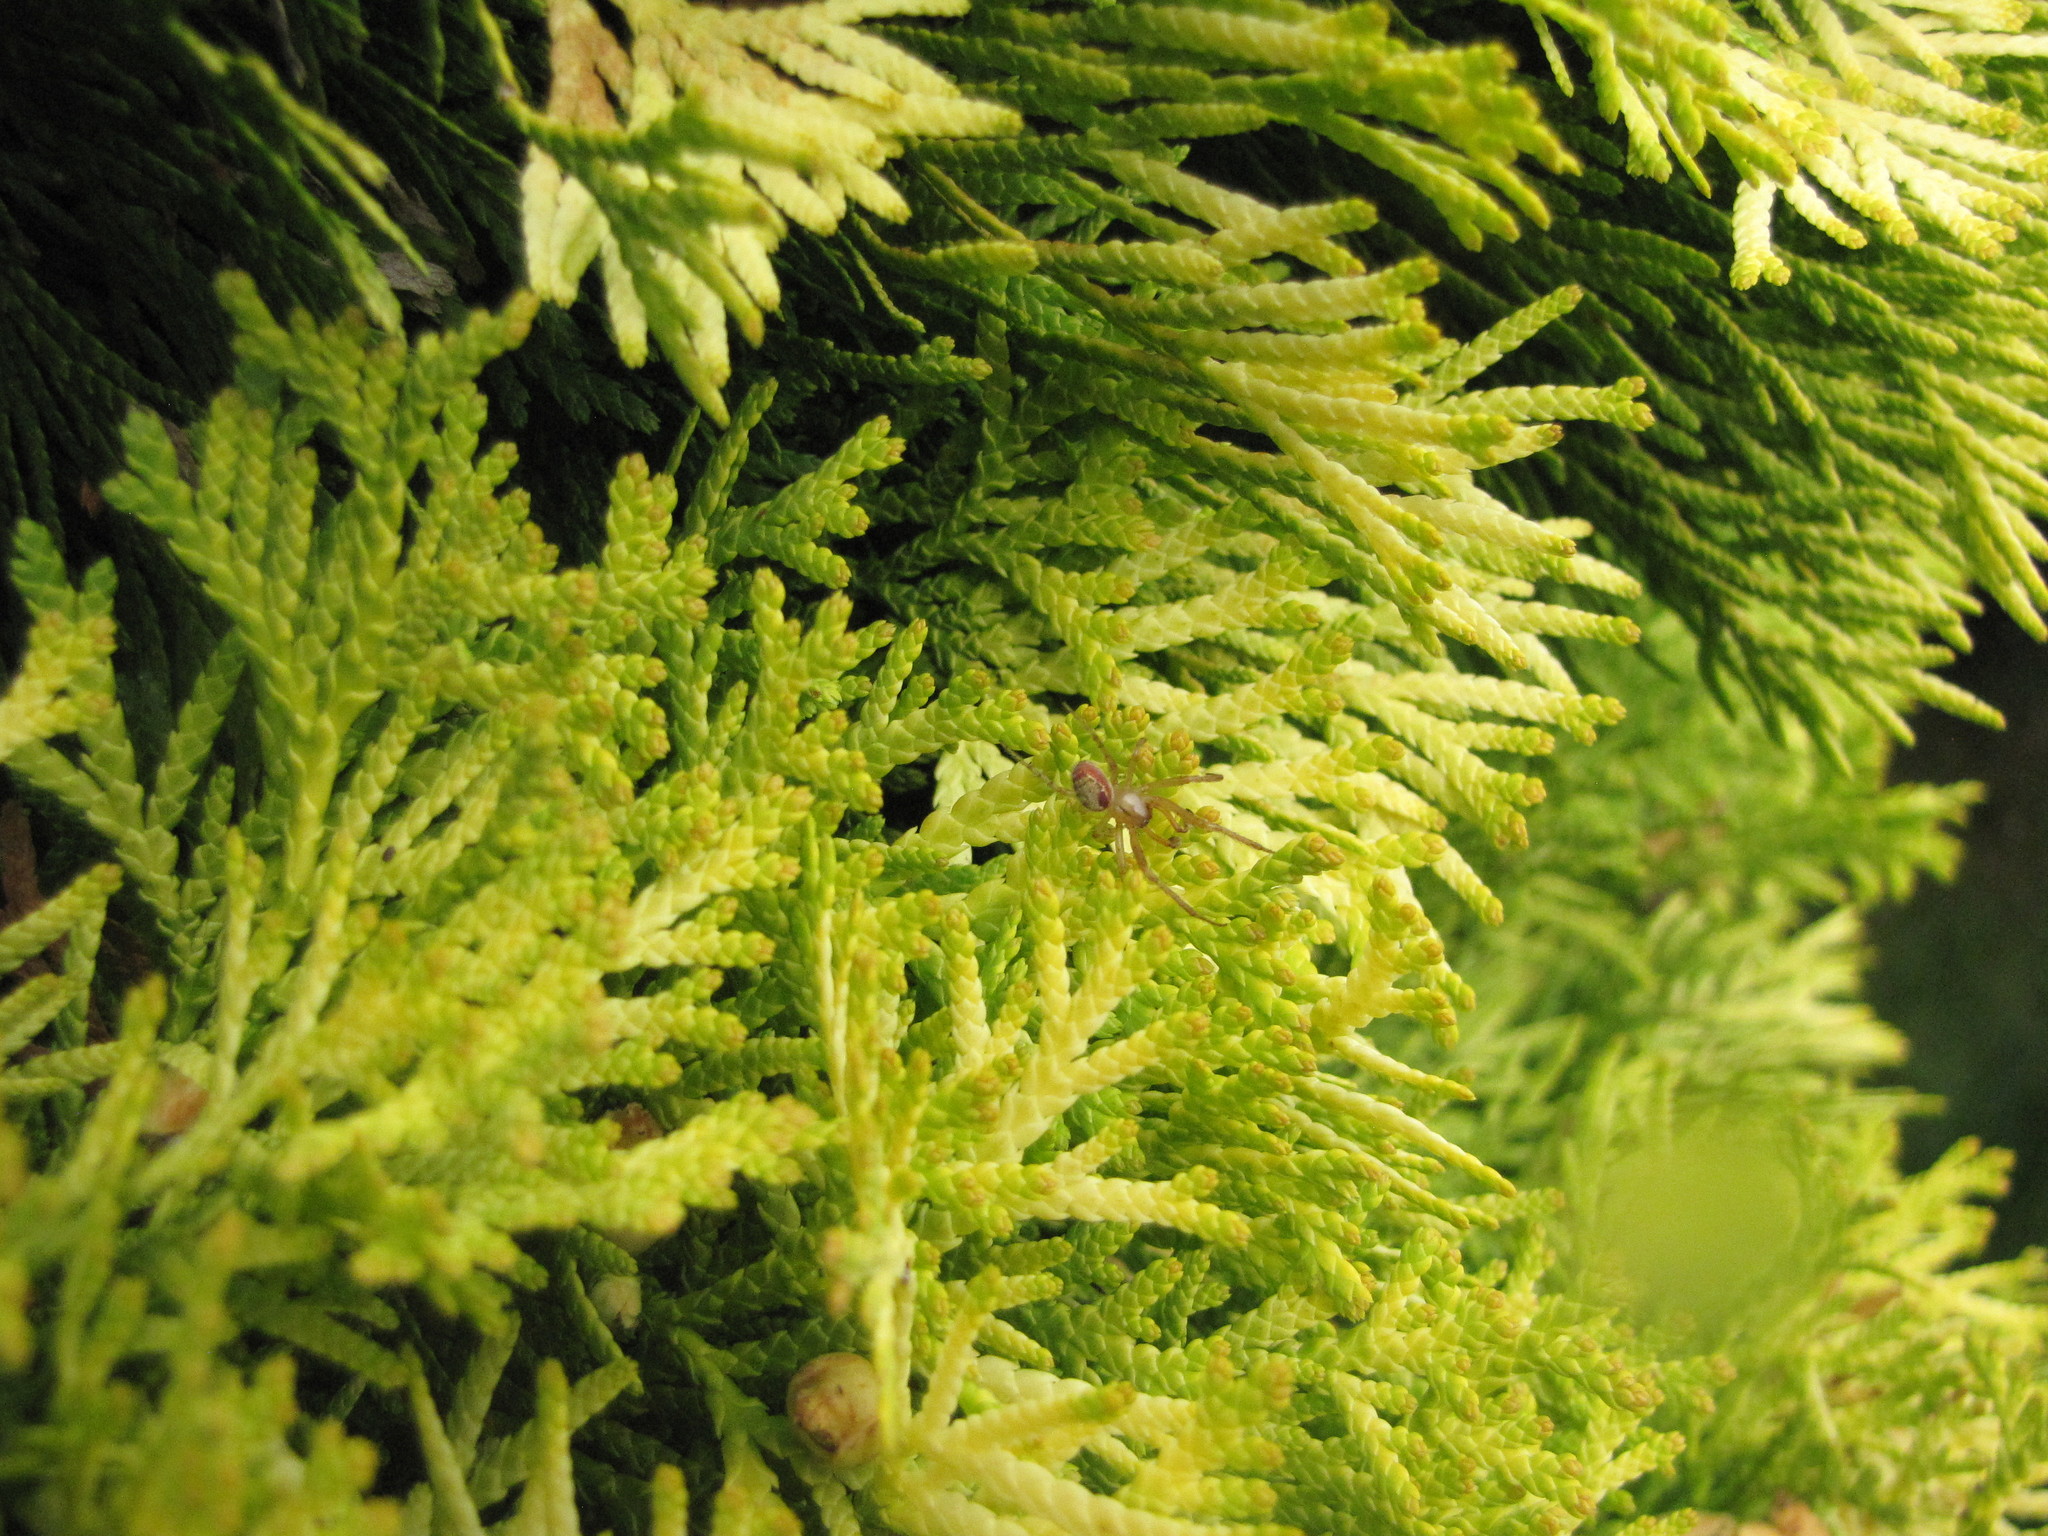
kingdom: Animalia
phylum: Arthropoda
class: Arachnida
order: Araneae
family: Araneidae
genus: Zygiella
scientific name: Zygiella atrica
